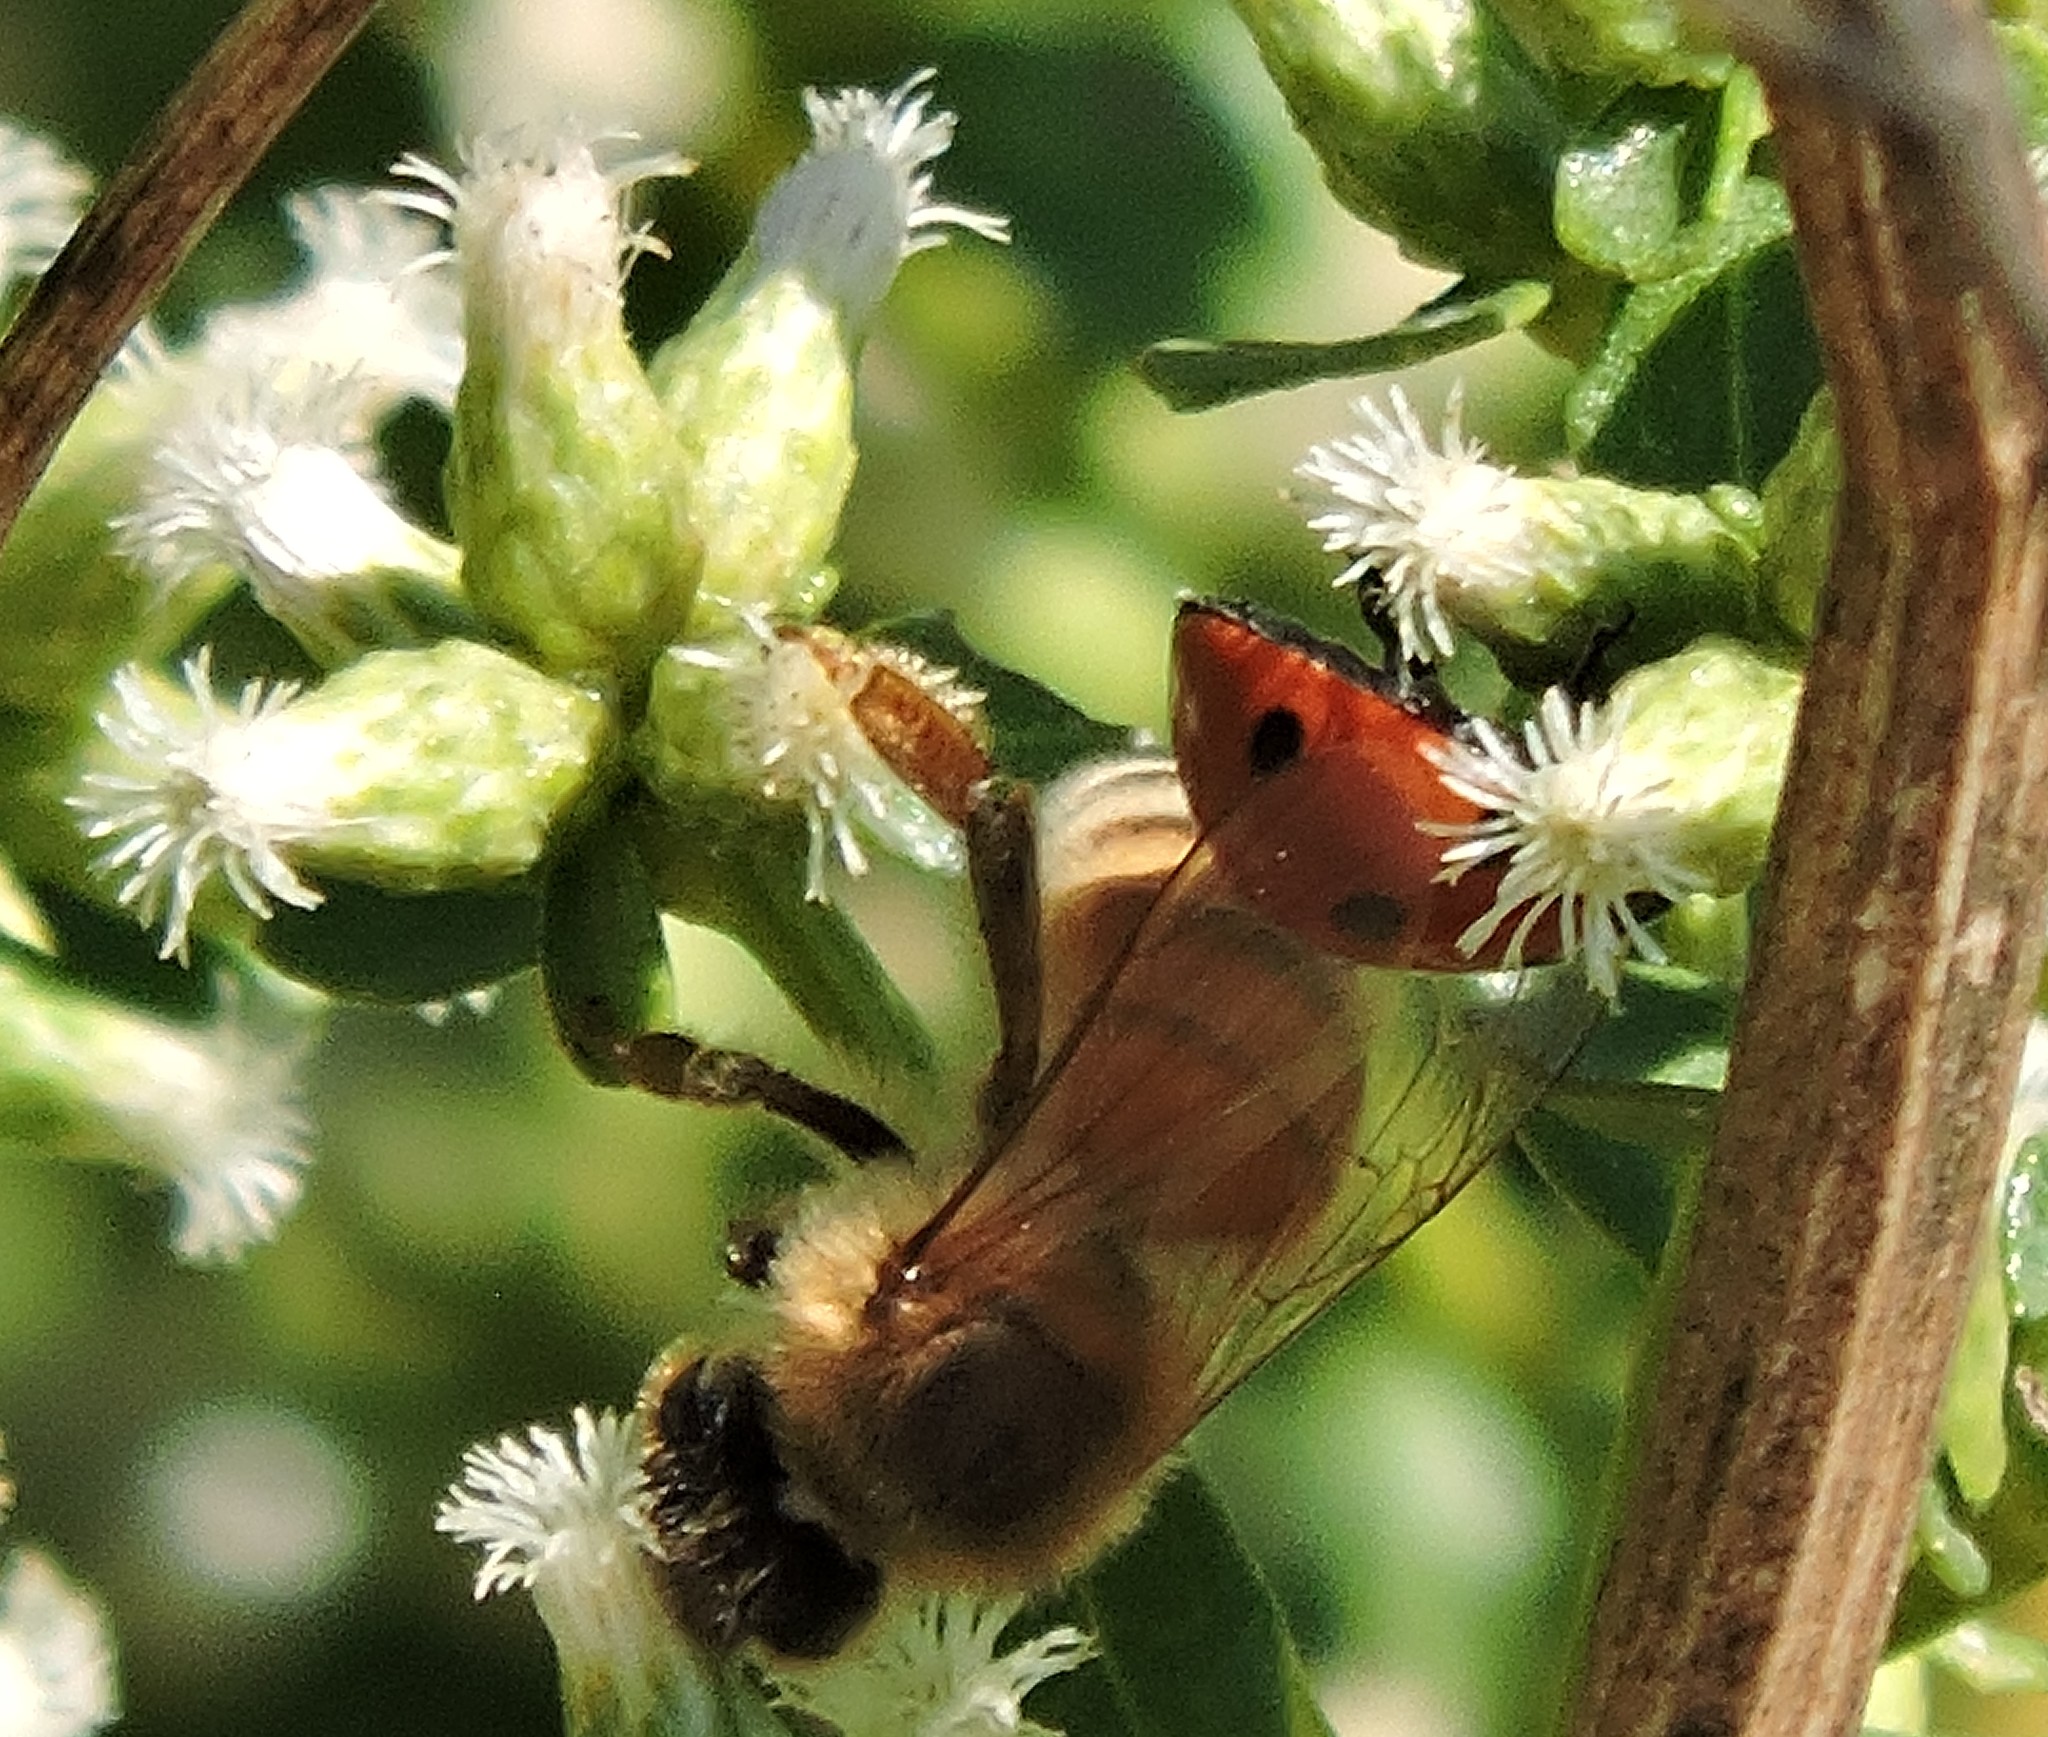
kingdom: Animalia
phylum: Arthropoda
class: Insecta
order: Hymenoptera
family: Apidae
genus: Apis
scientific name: Apis mellifera
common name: Honey bee
